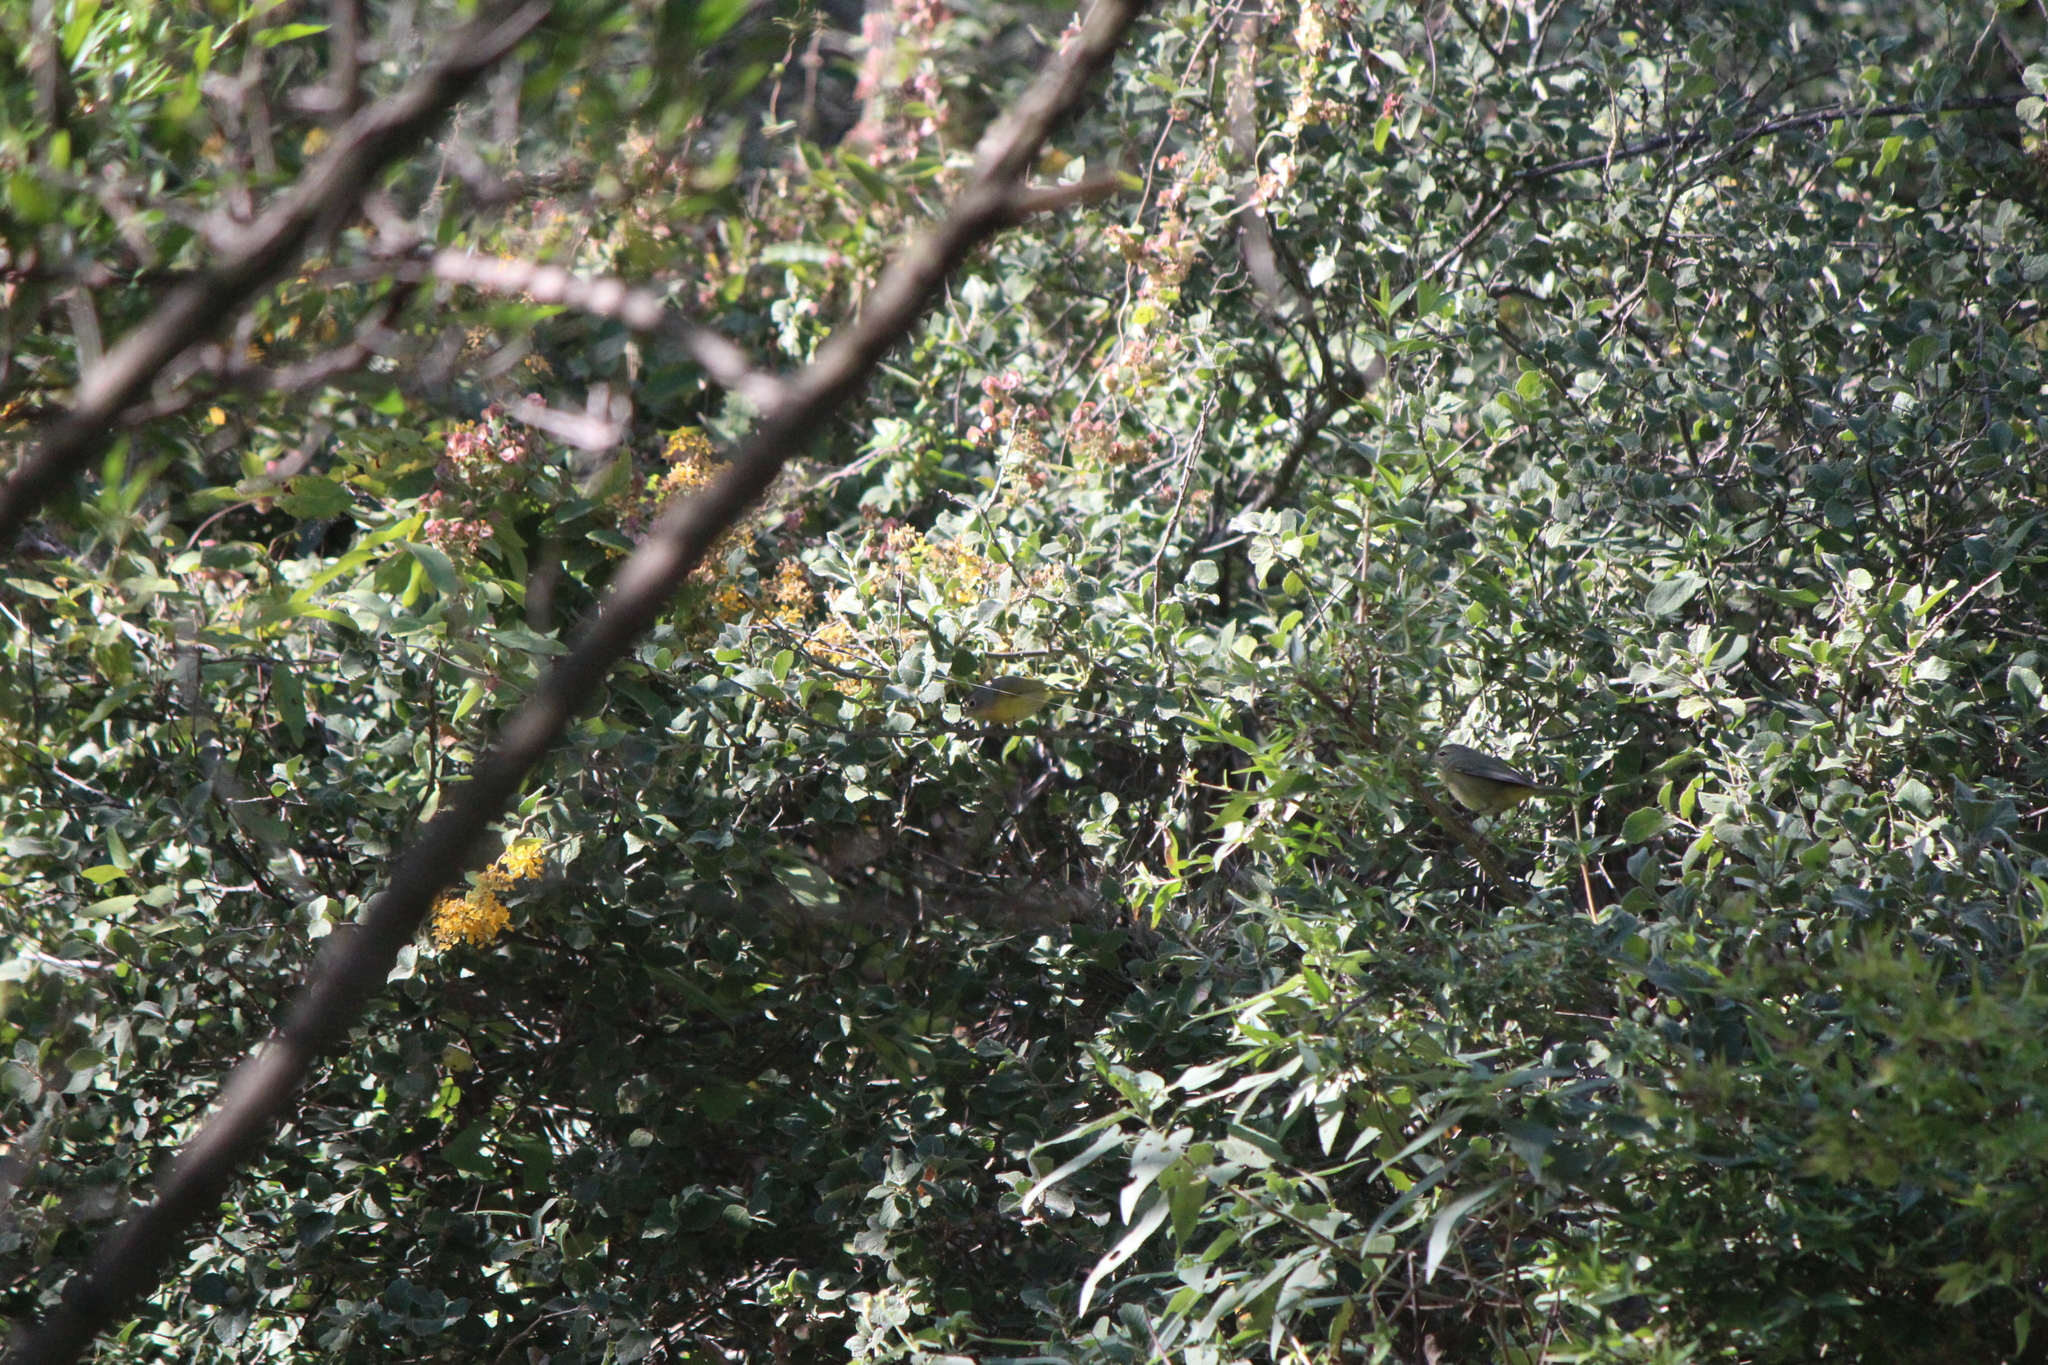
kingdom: Animalia
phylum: Chordata
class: Aves
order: Passeriformes
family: Parulidae
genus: Leiothlypis
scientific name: Leiothlypis ruficapilla
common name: Nashville warbler
